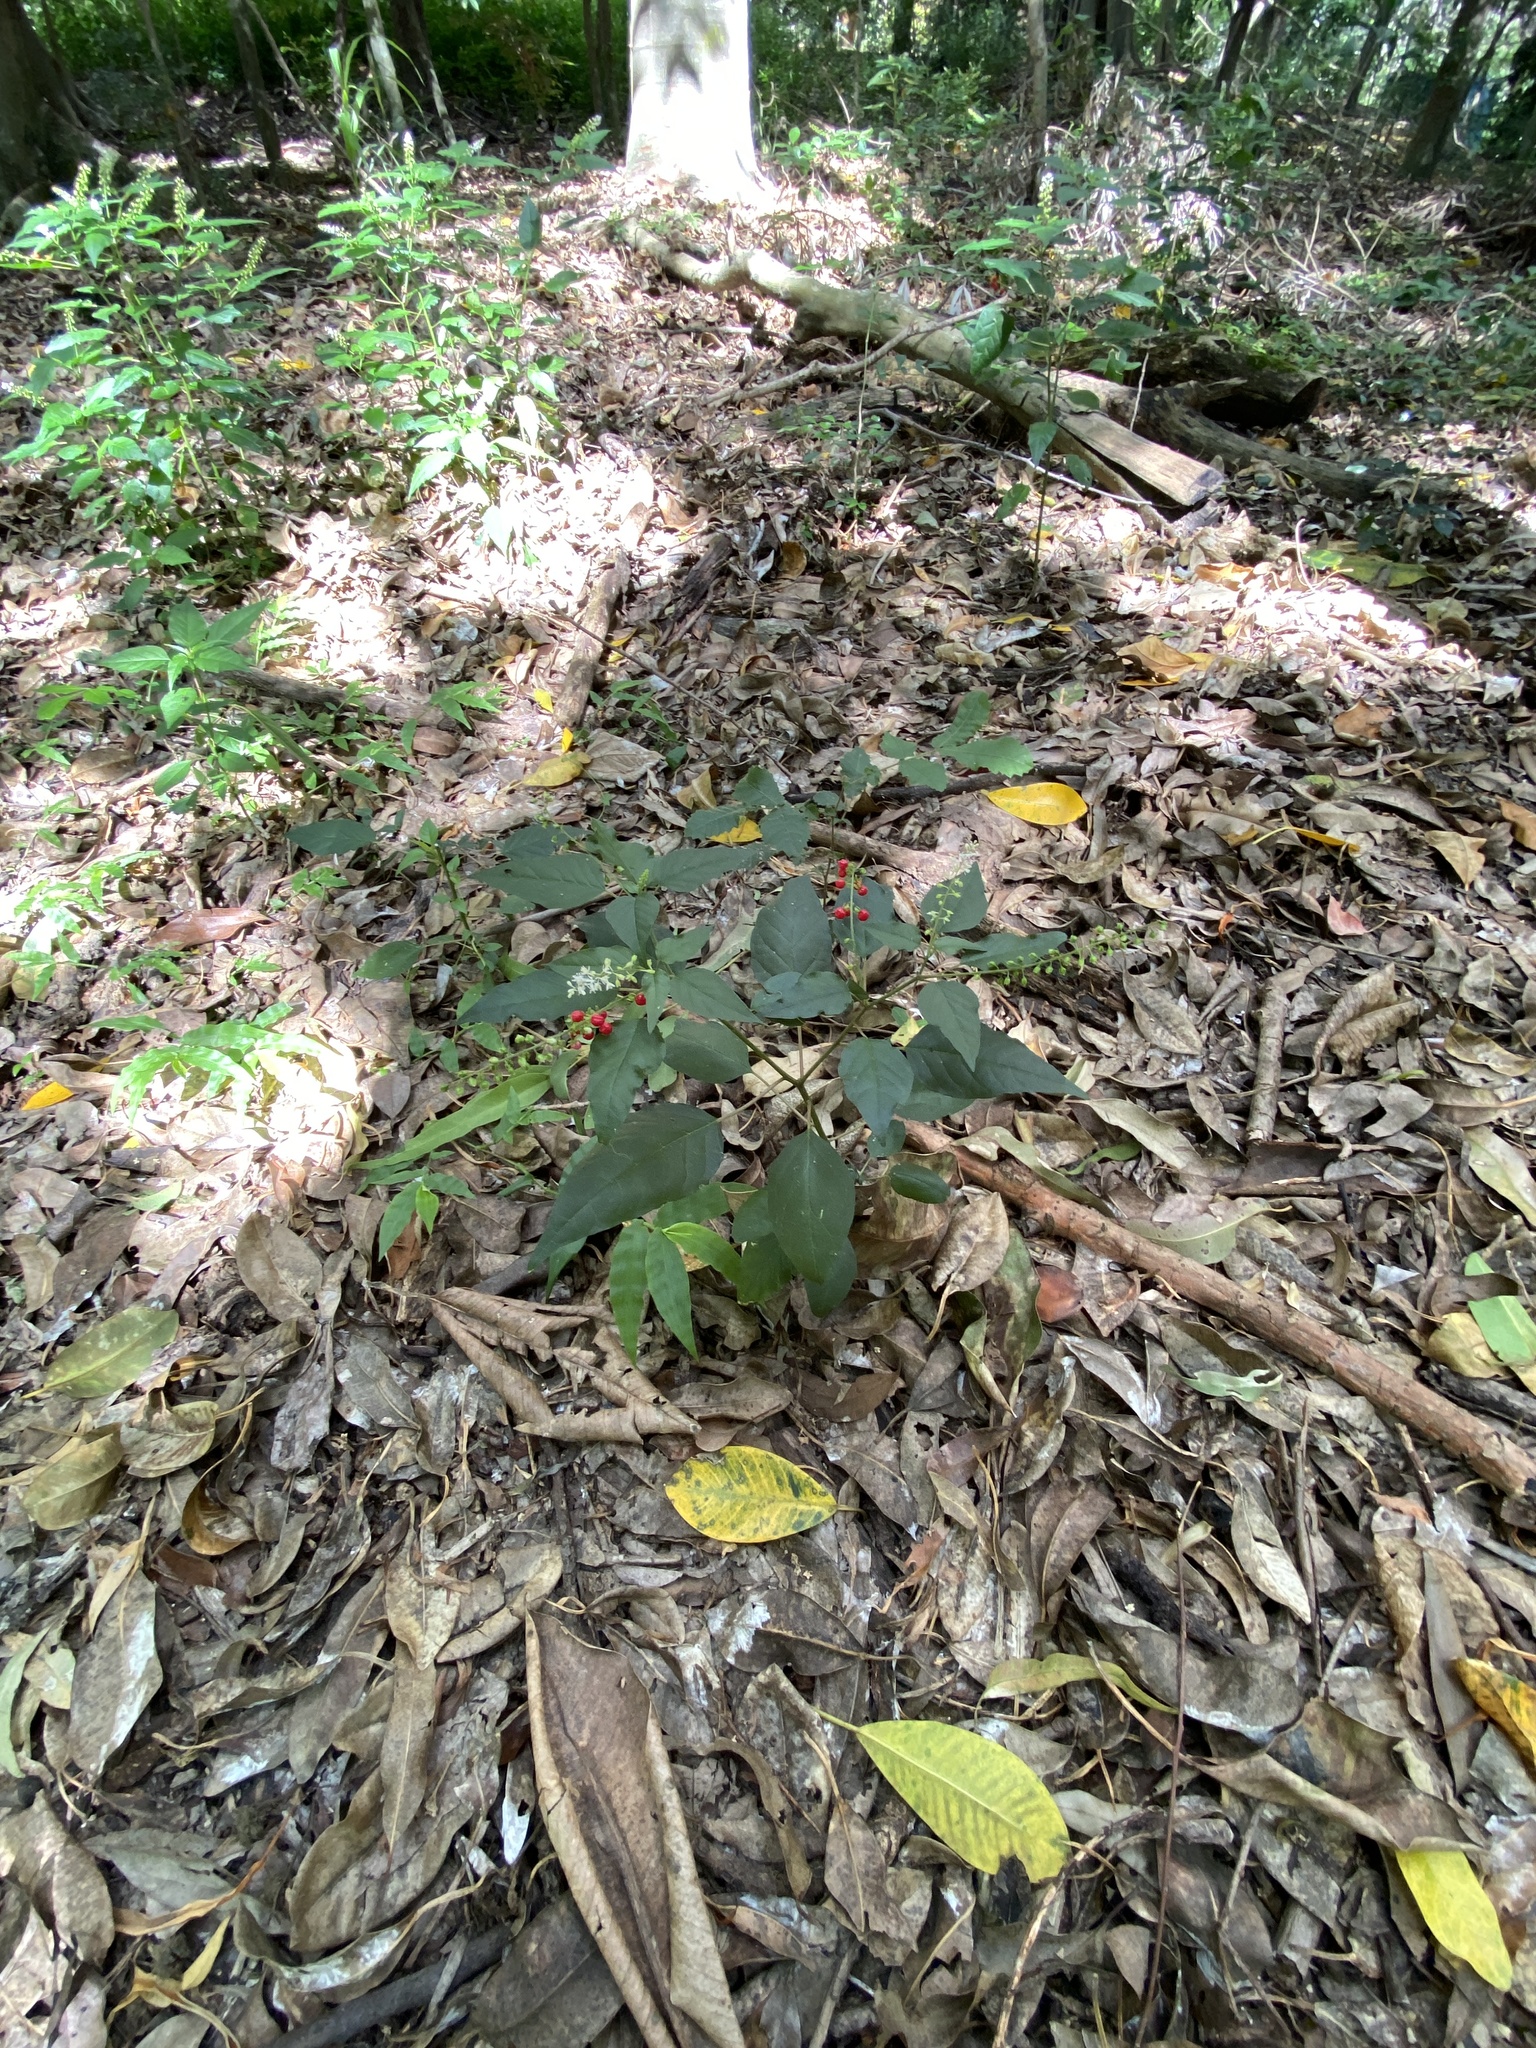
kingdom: Plantae
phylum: Tracheophyta
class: Magnoliopsida
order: Caryophyllales
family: Phytolaccaceae
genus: Rivina
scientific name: Rivina humilis
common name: Rougeplant
